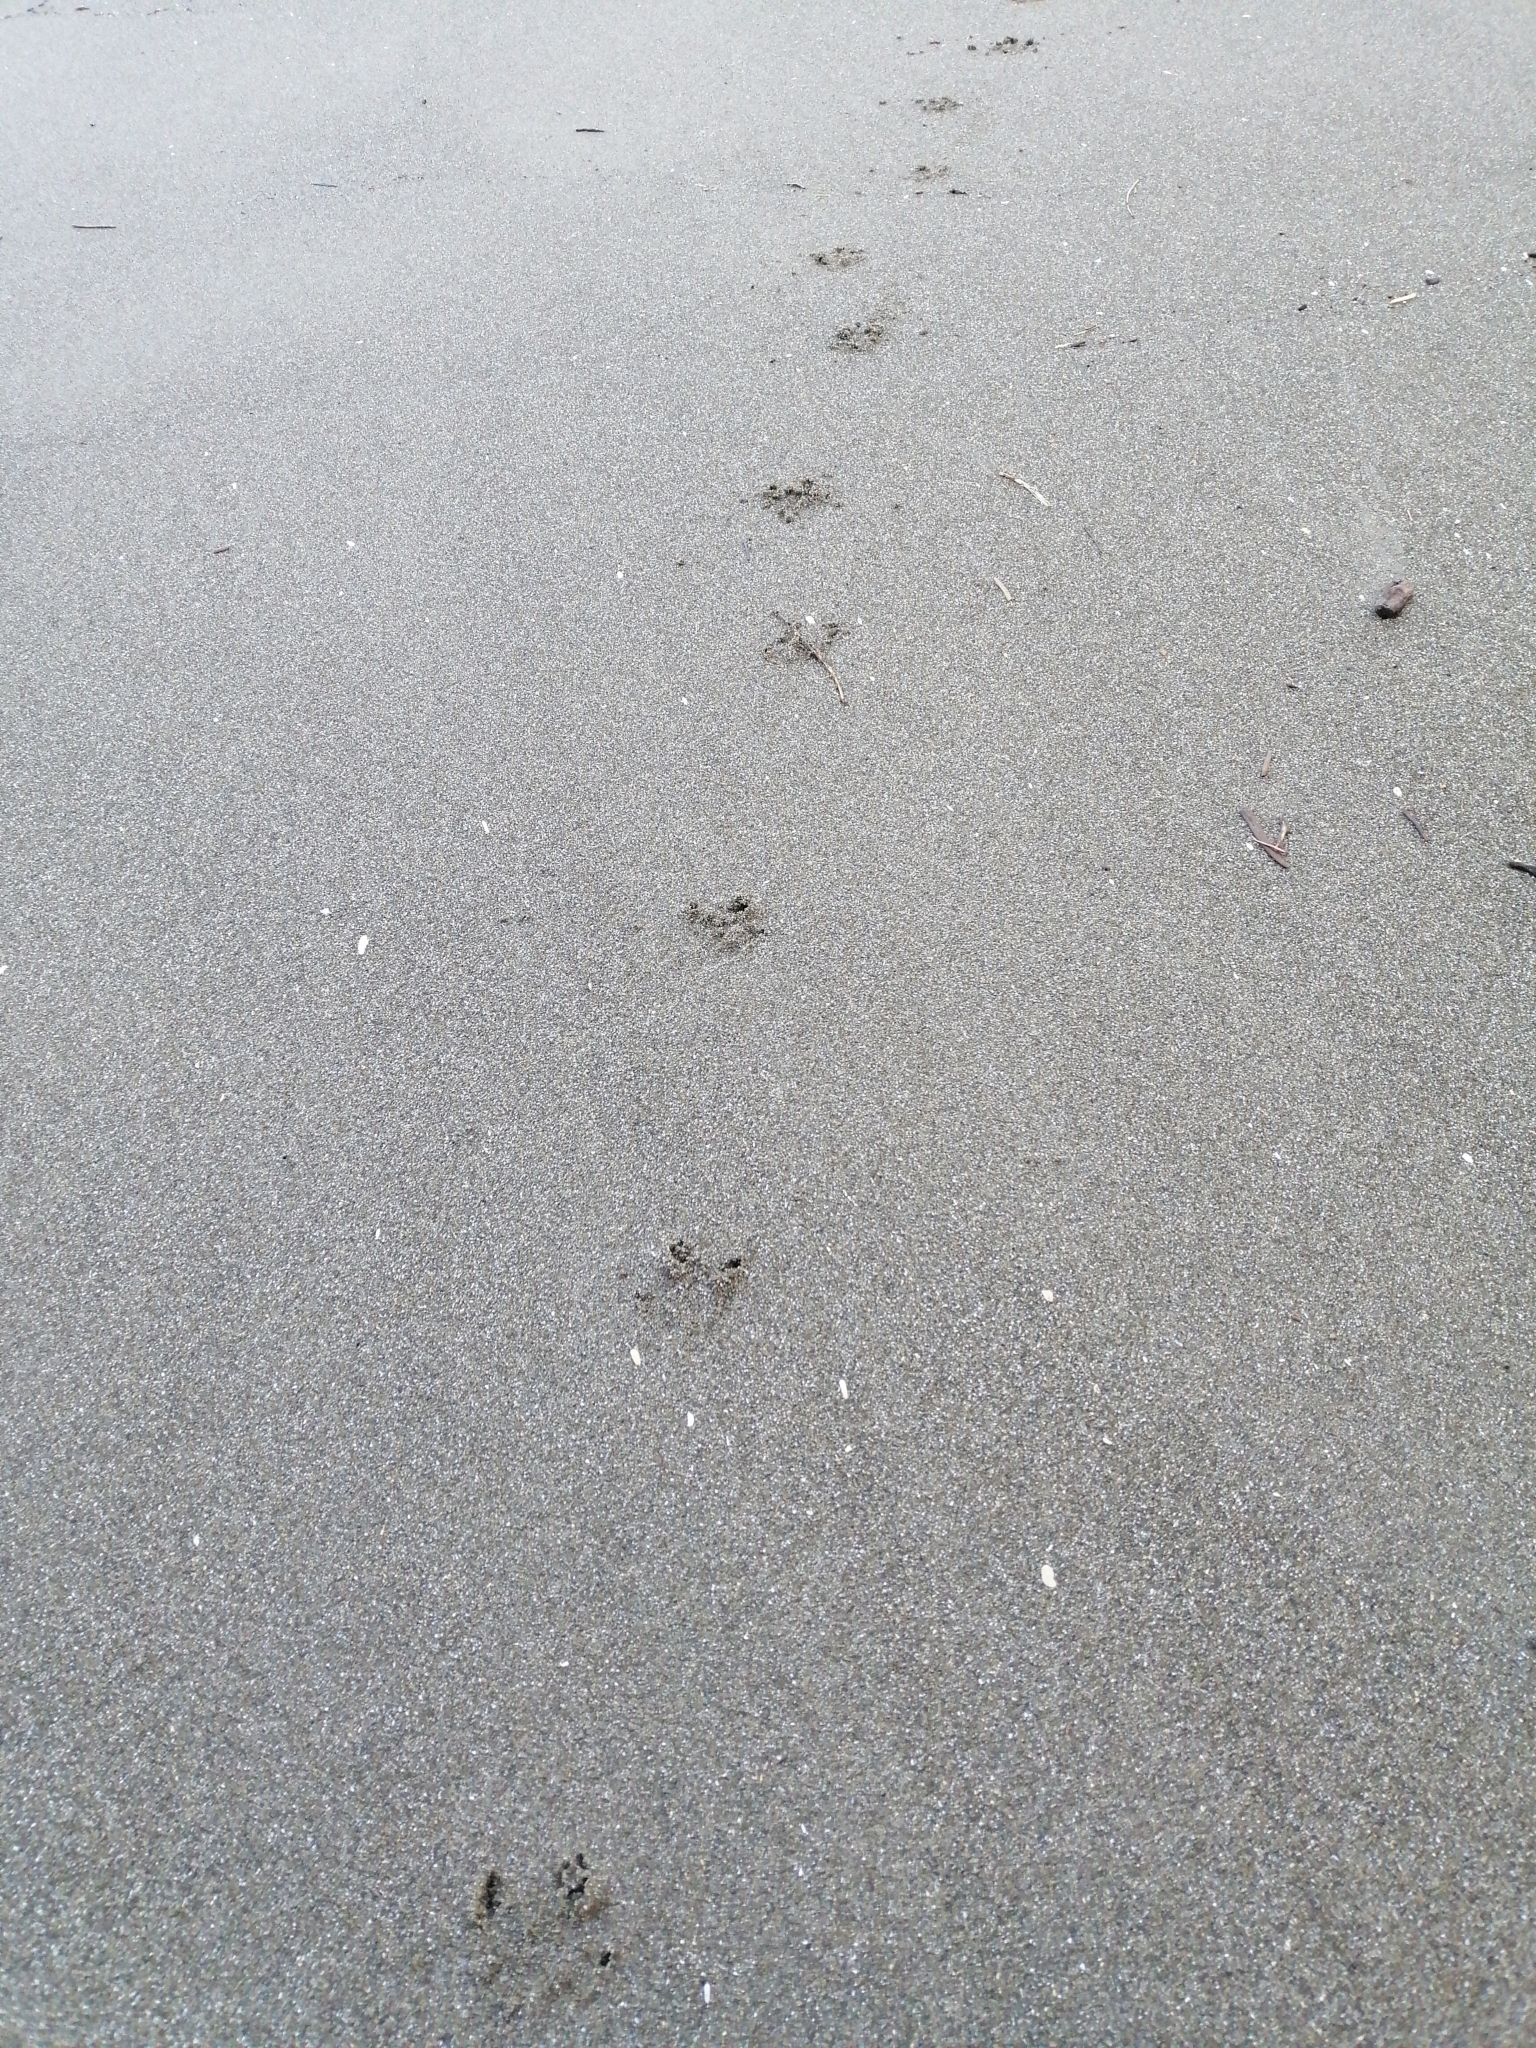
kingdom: Animalia
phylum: Chordata
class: Aves
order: Sphenisciformes
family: Spheniscidae
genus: Eudyptula
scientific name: Eudyptula minor
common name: Little penguin
